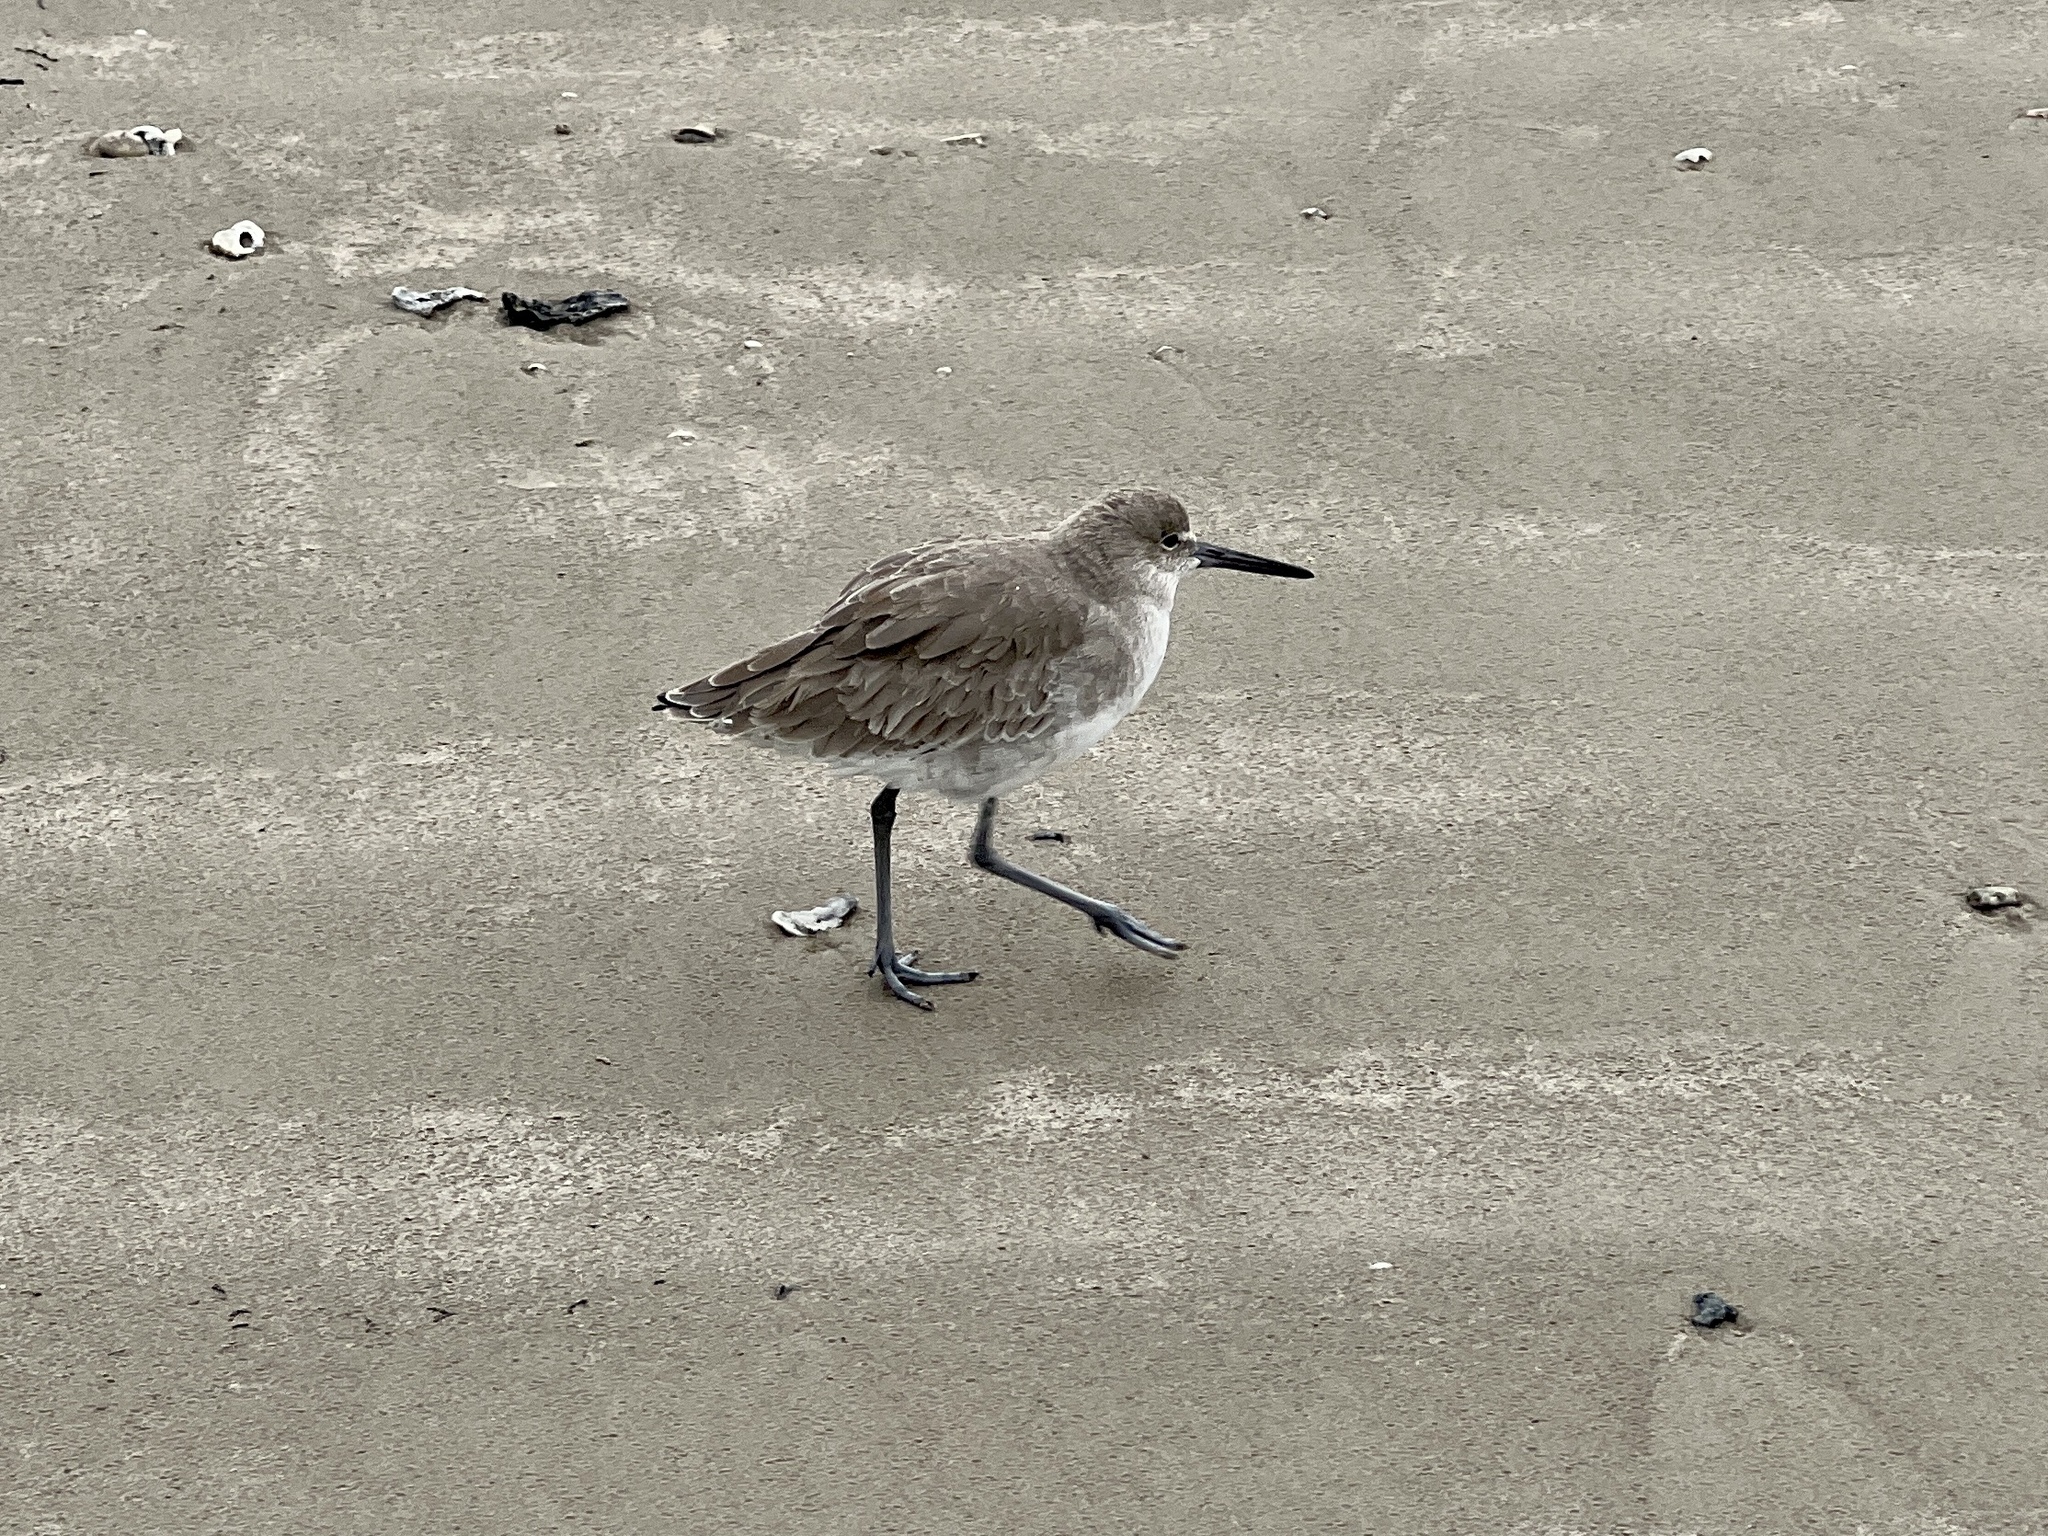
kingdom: Animalia
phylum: Chordata
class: Aves
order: Charadriiformes
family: Scolopacidae
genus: Tringa
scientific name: Tringa semipalmata
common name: Willet
